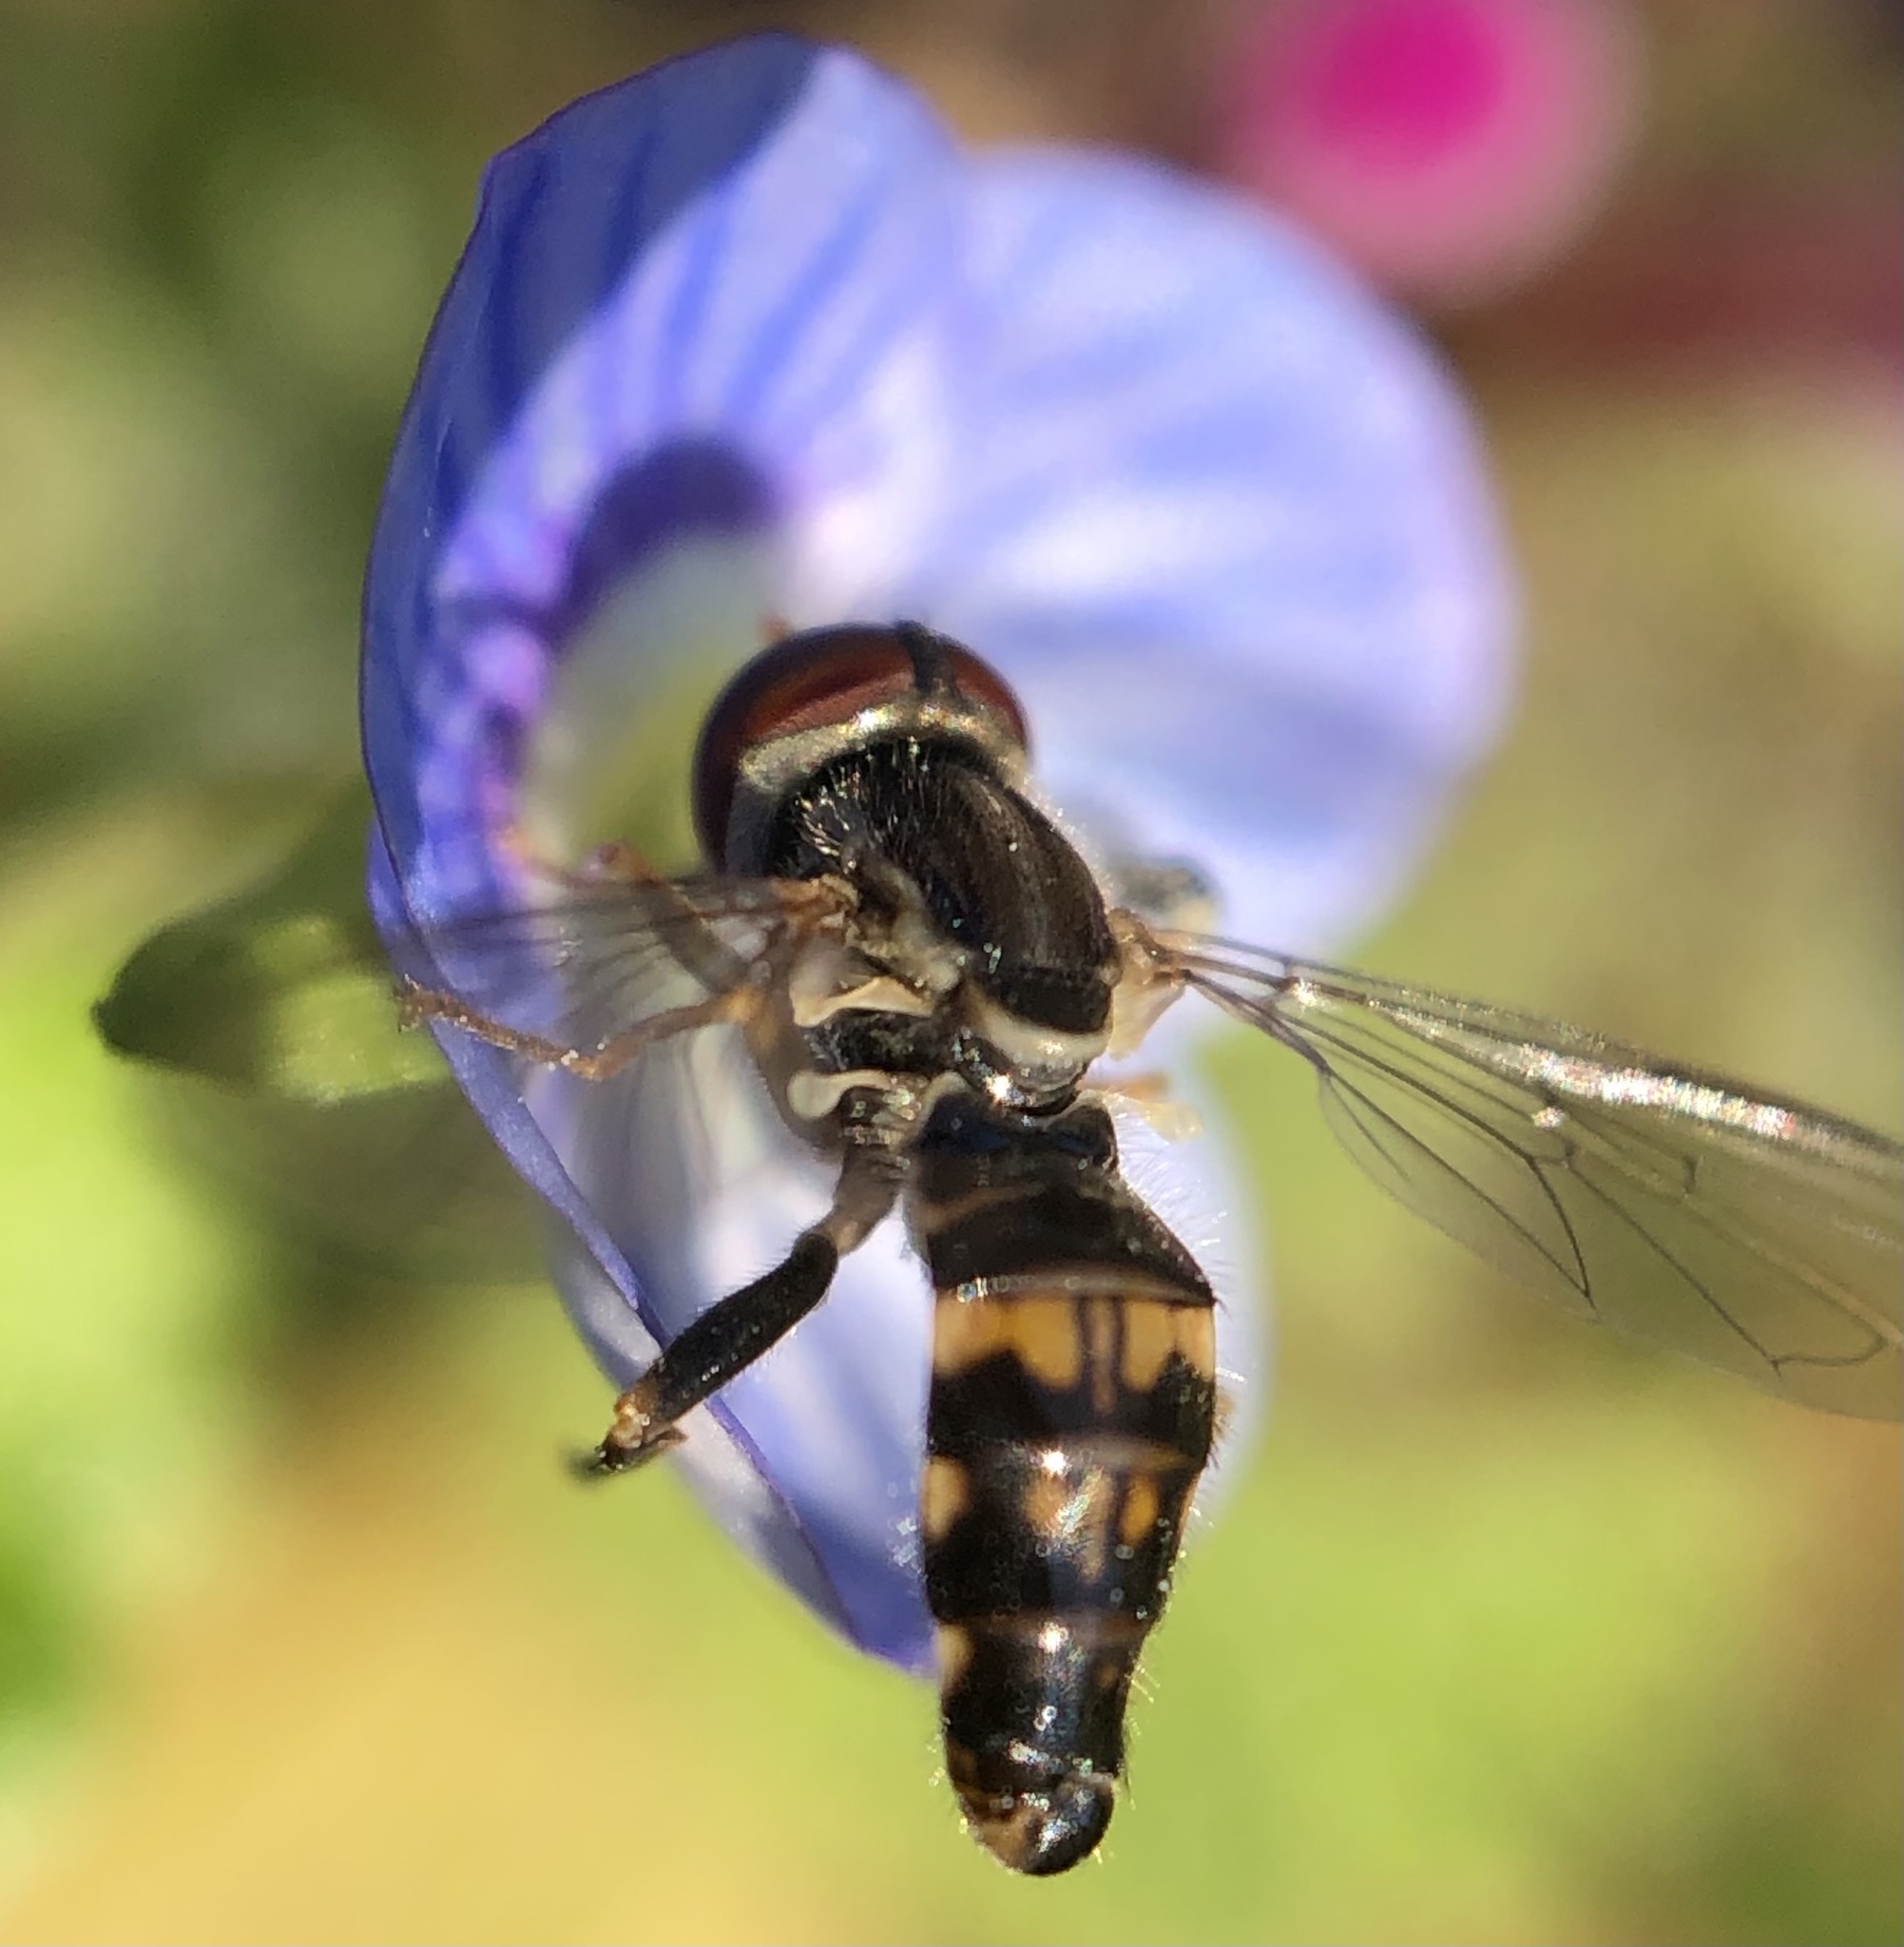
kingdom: Animalia
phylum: Arthropoda
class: Insecta
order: Diptera
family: Syrphidae
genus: Toxomerus
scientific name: Toxomerus geminatus
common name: Eastern calligrapher
